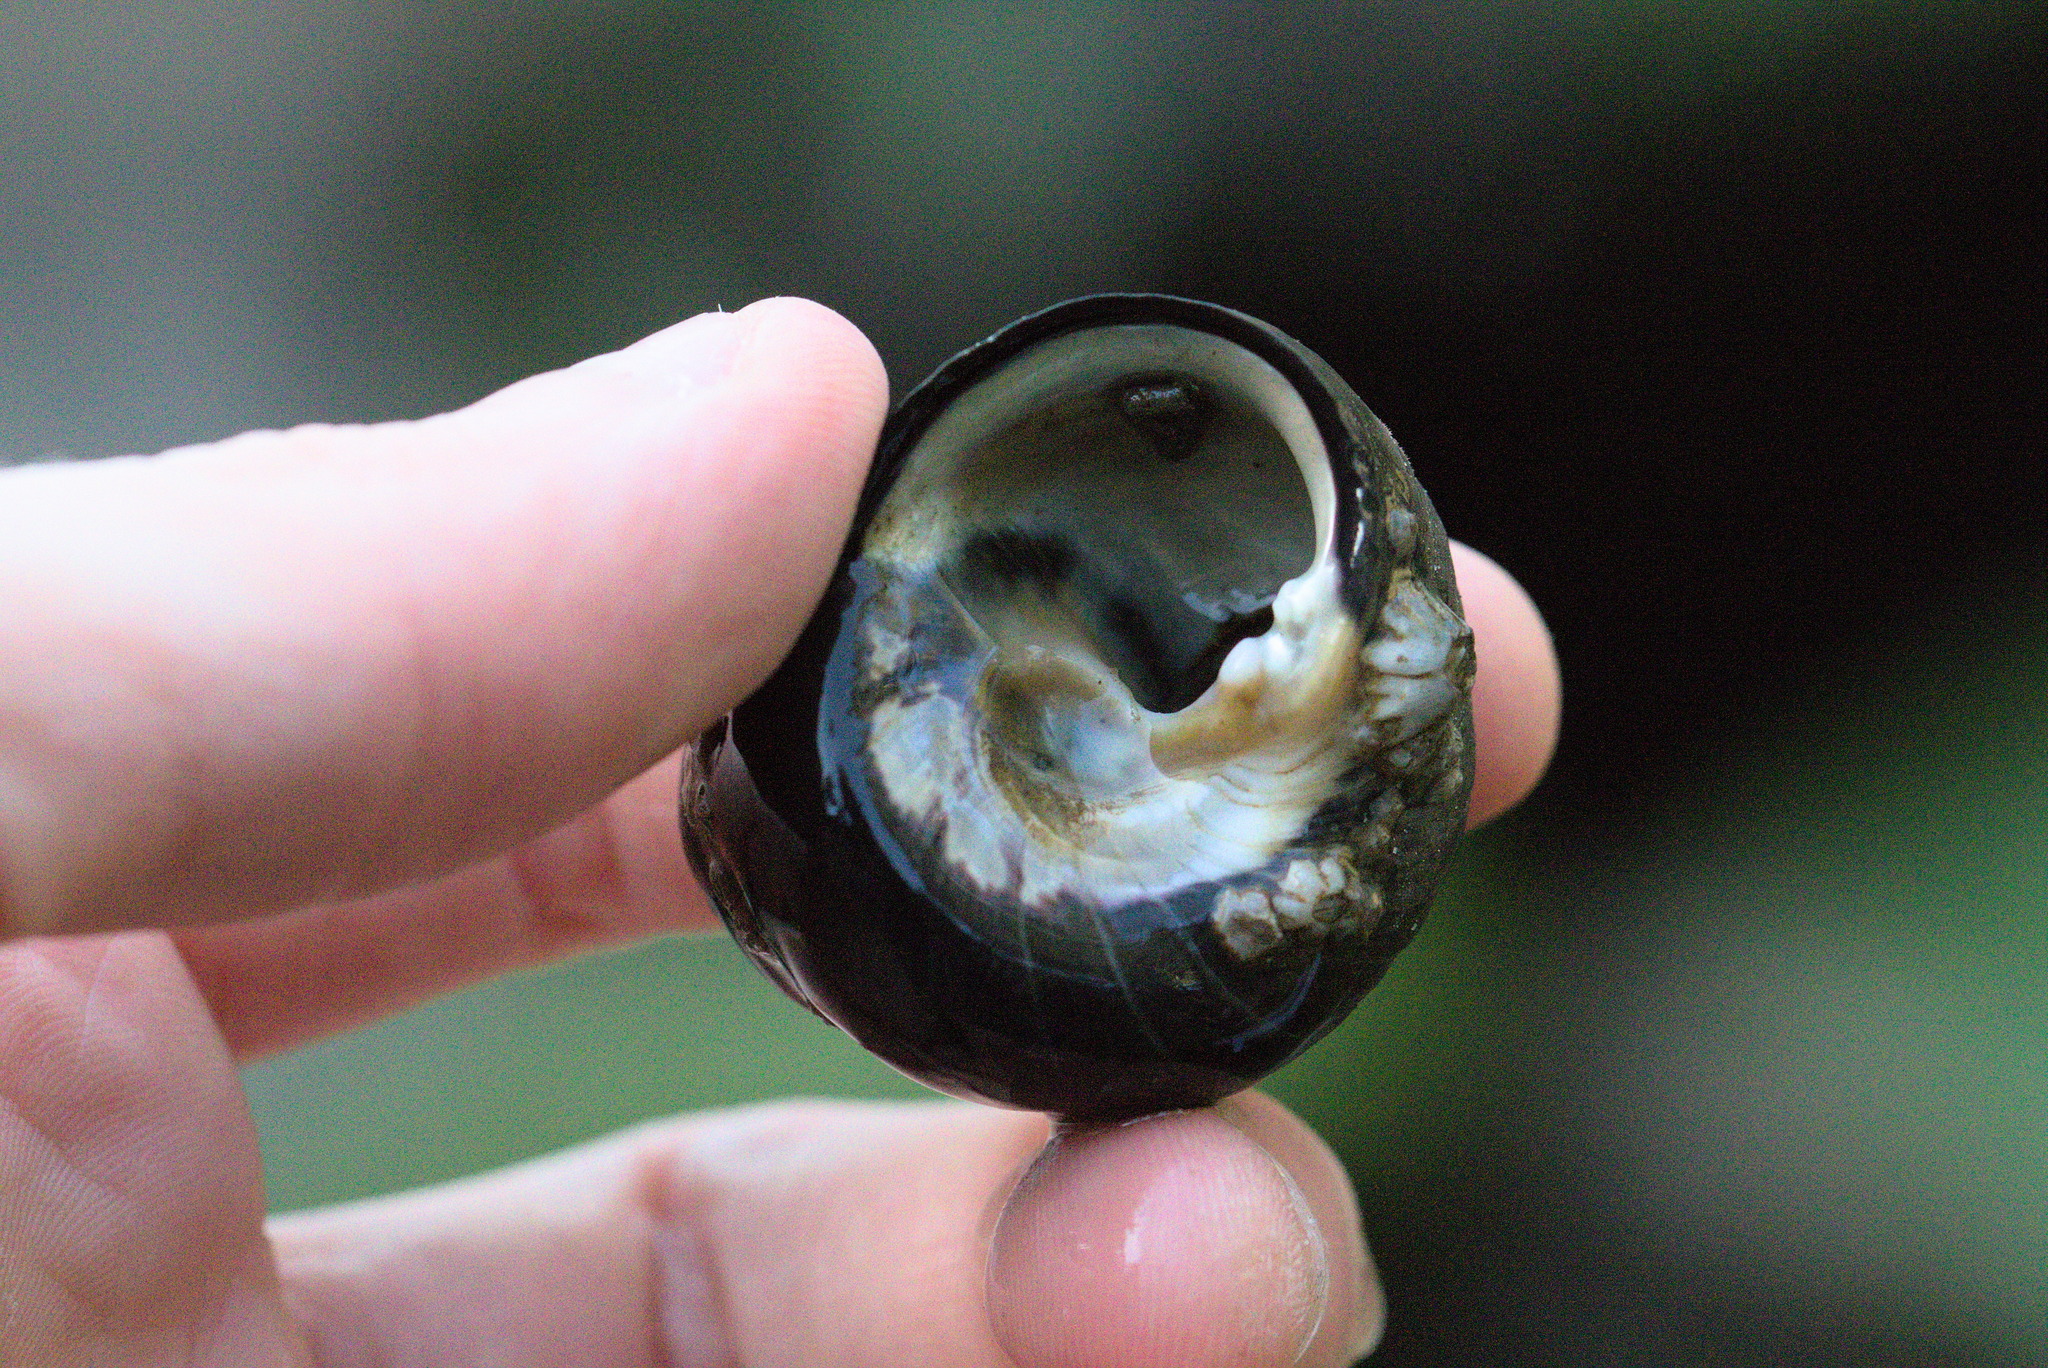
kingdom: Animalia
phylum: Mollusca
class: Gastropoda
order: Trochida
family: Tegulidae
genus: Tegula
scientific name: Tegula funebralis
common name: Black tegula
